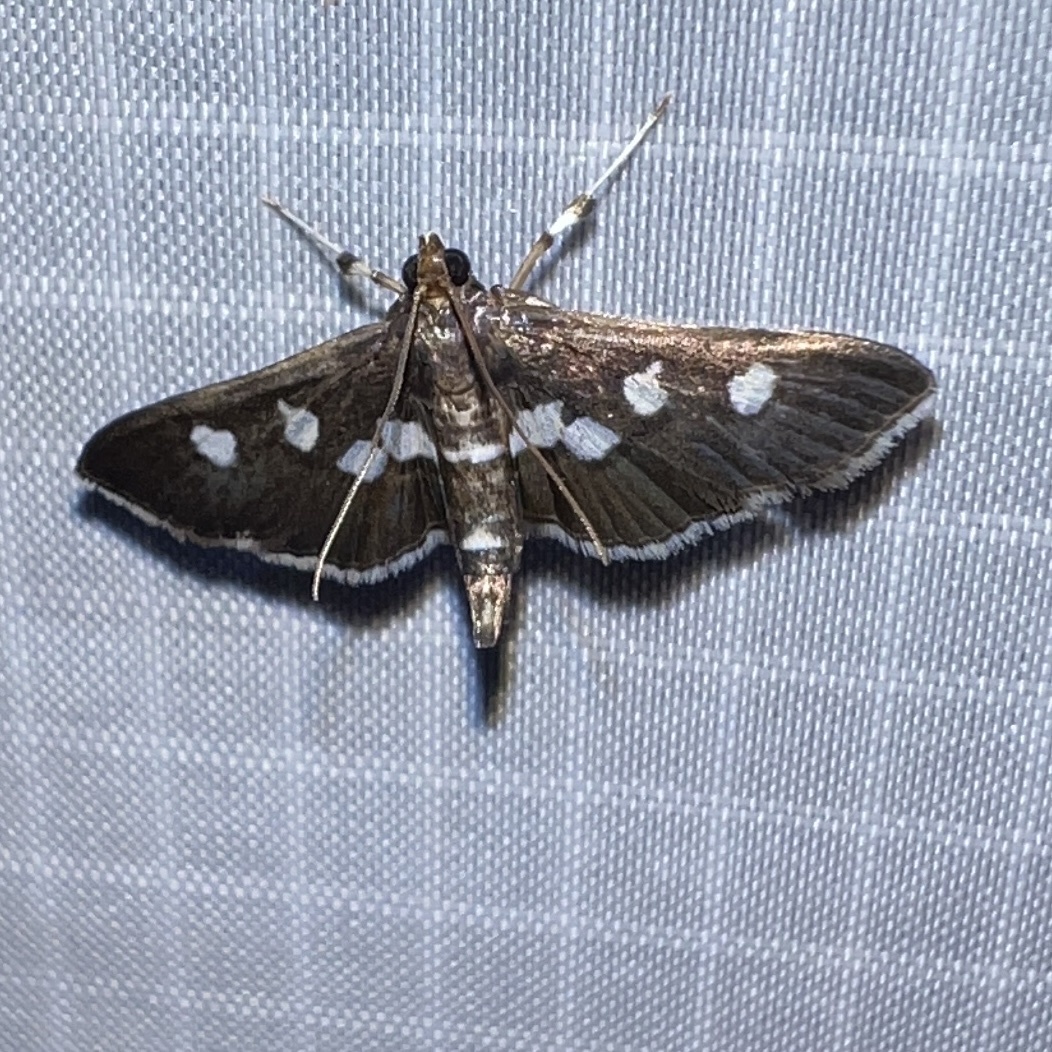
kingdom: Animalia
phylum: Arthropoda
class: Insecta
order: Lepidoptera
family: Crambidae
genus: Desmia
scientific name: Desmia funeralis
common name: Grape leaf folder moth
